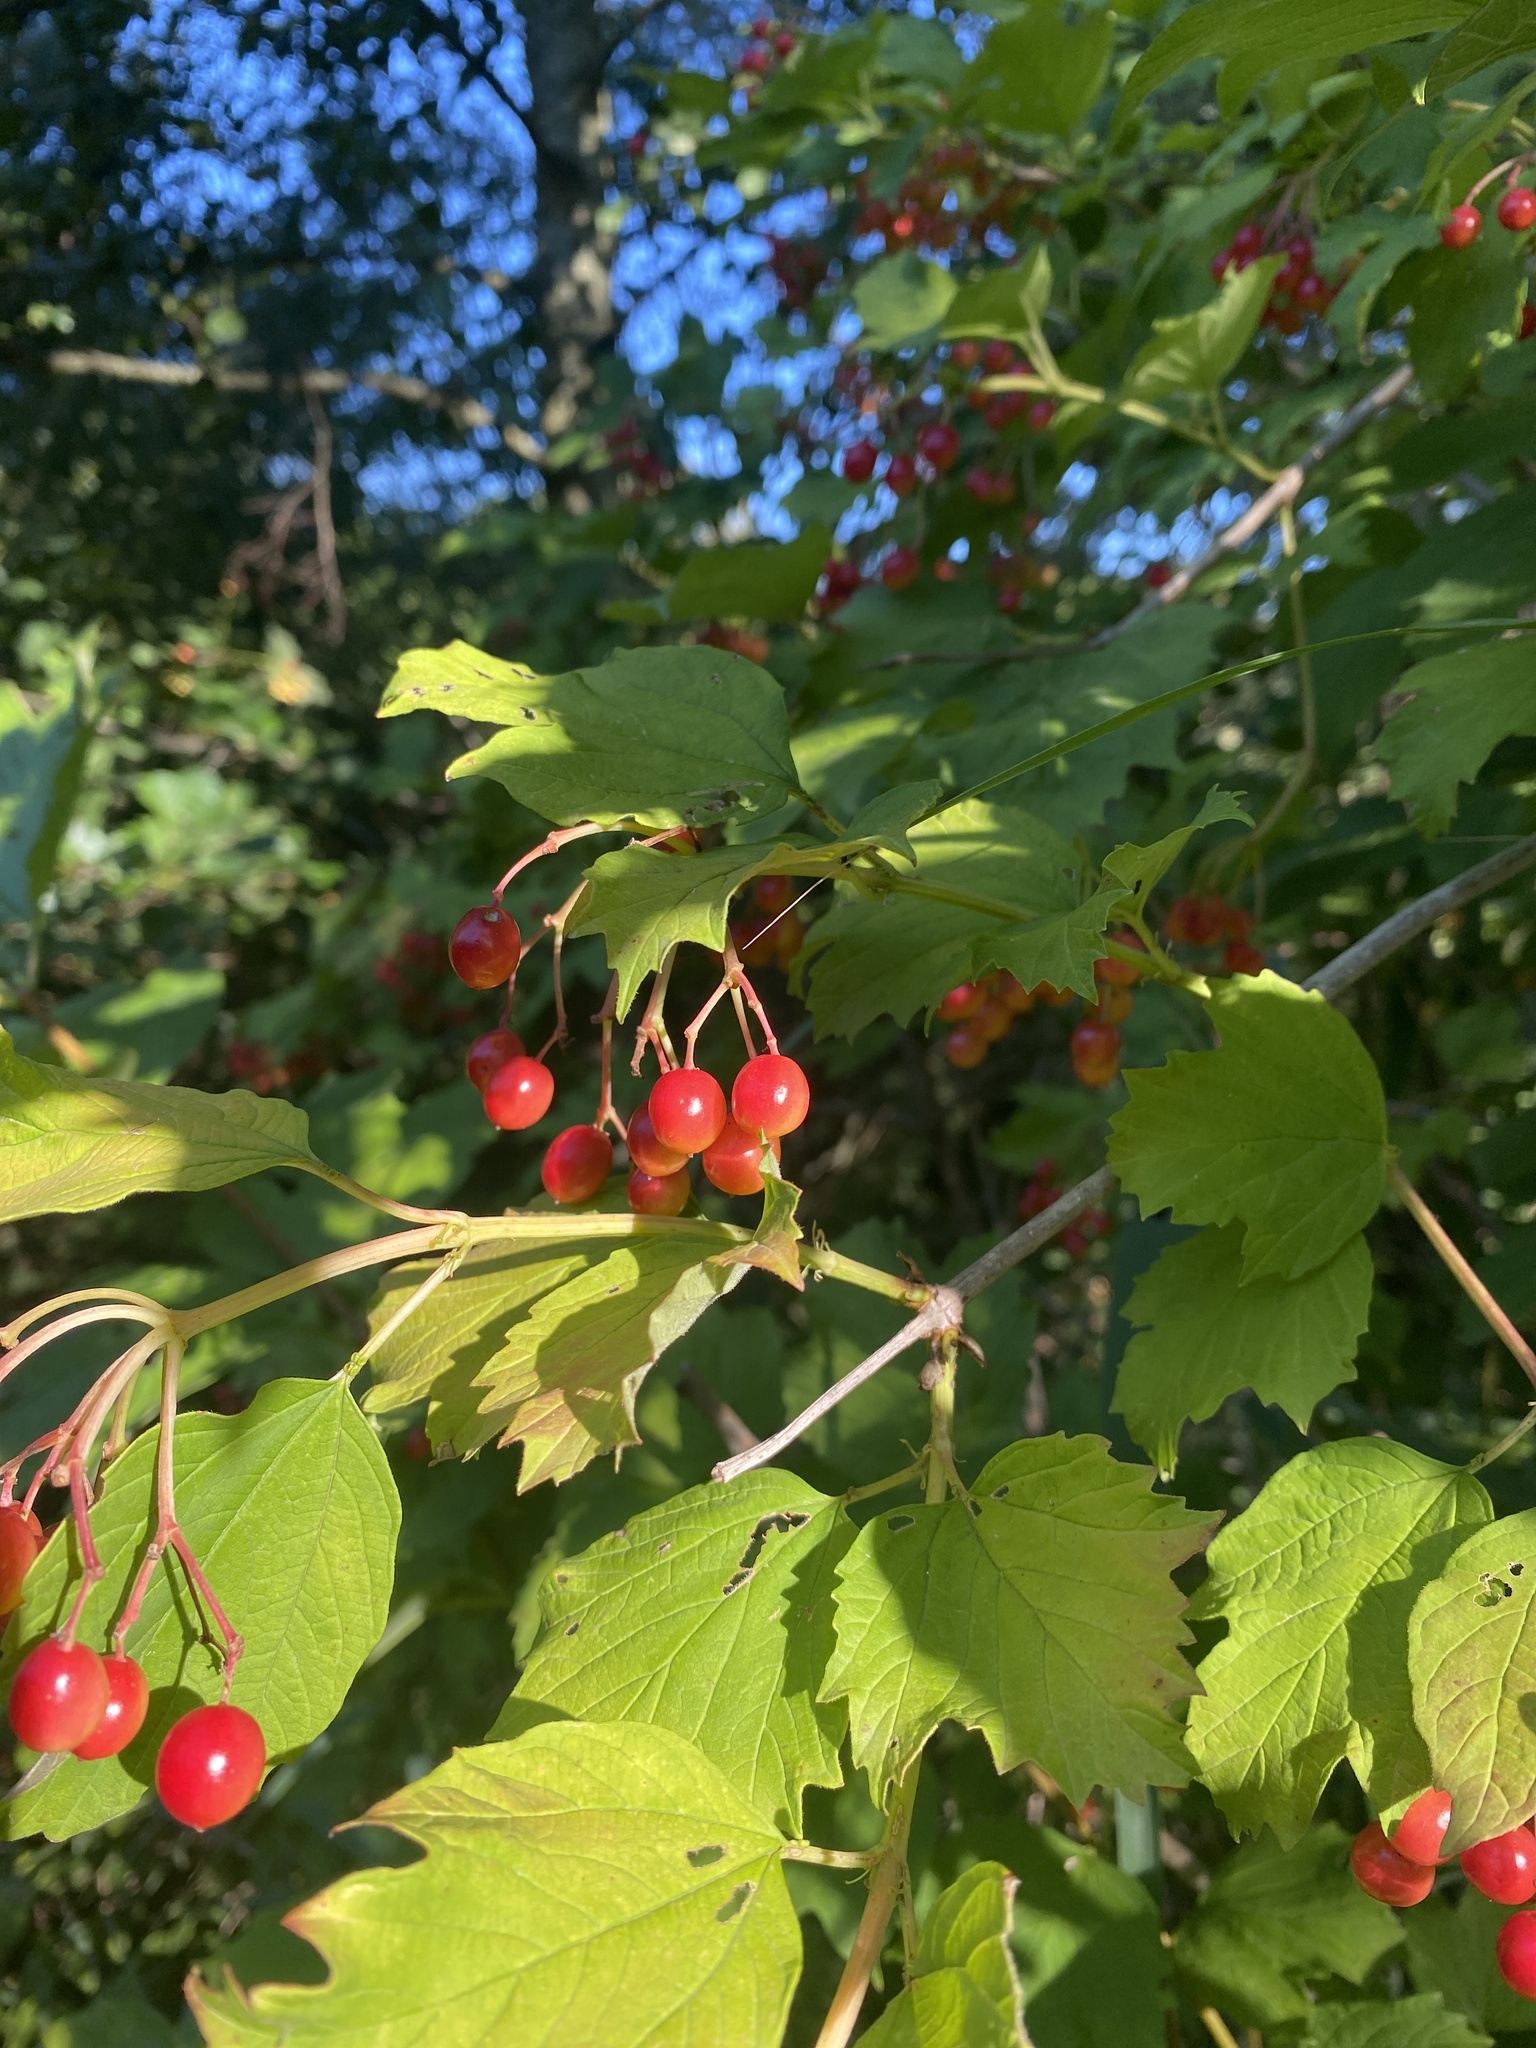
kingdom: Plantae
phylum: Tracheophyta
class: Magnoliopsida
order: Dipsacales
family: Viburnaceae
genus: Viburnum
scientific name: Viburnum opulus
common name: Guelder-rose
